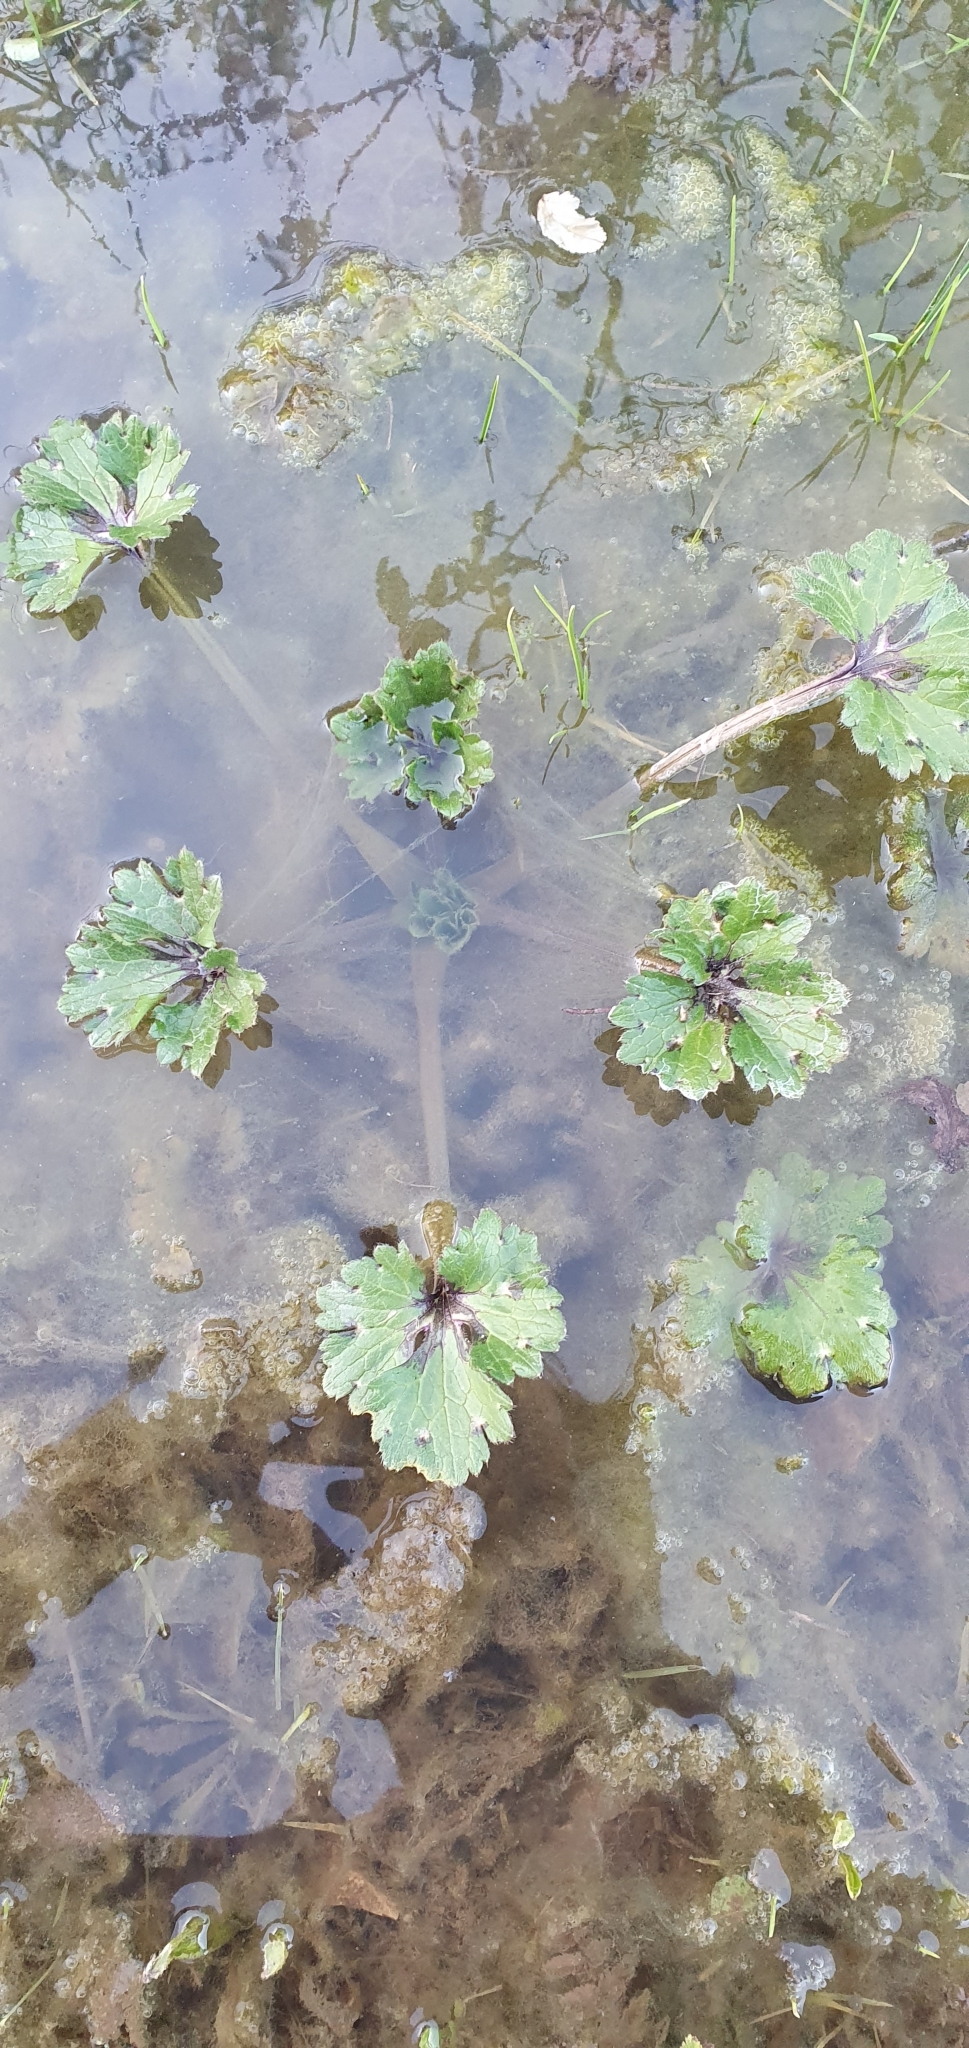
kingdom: Plantae
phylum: Tracheophyta
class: Magnoliopsida
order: Ranunculales
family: Ranunculaceae
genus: Ranunculus
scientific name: Ranunculus repens
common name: Creeping buttercup
